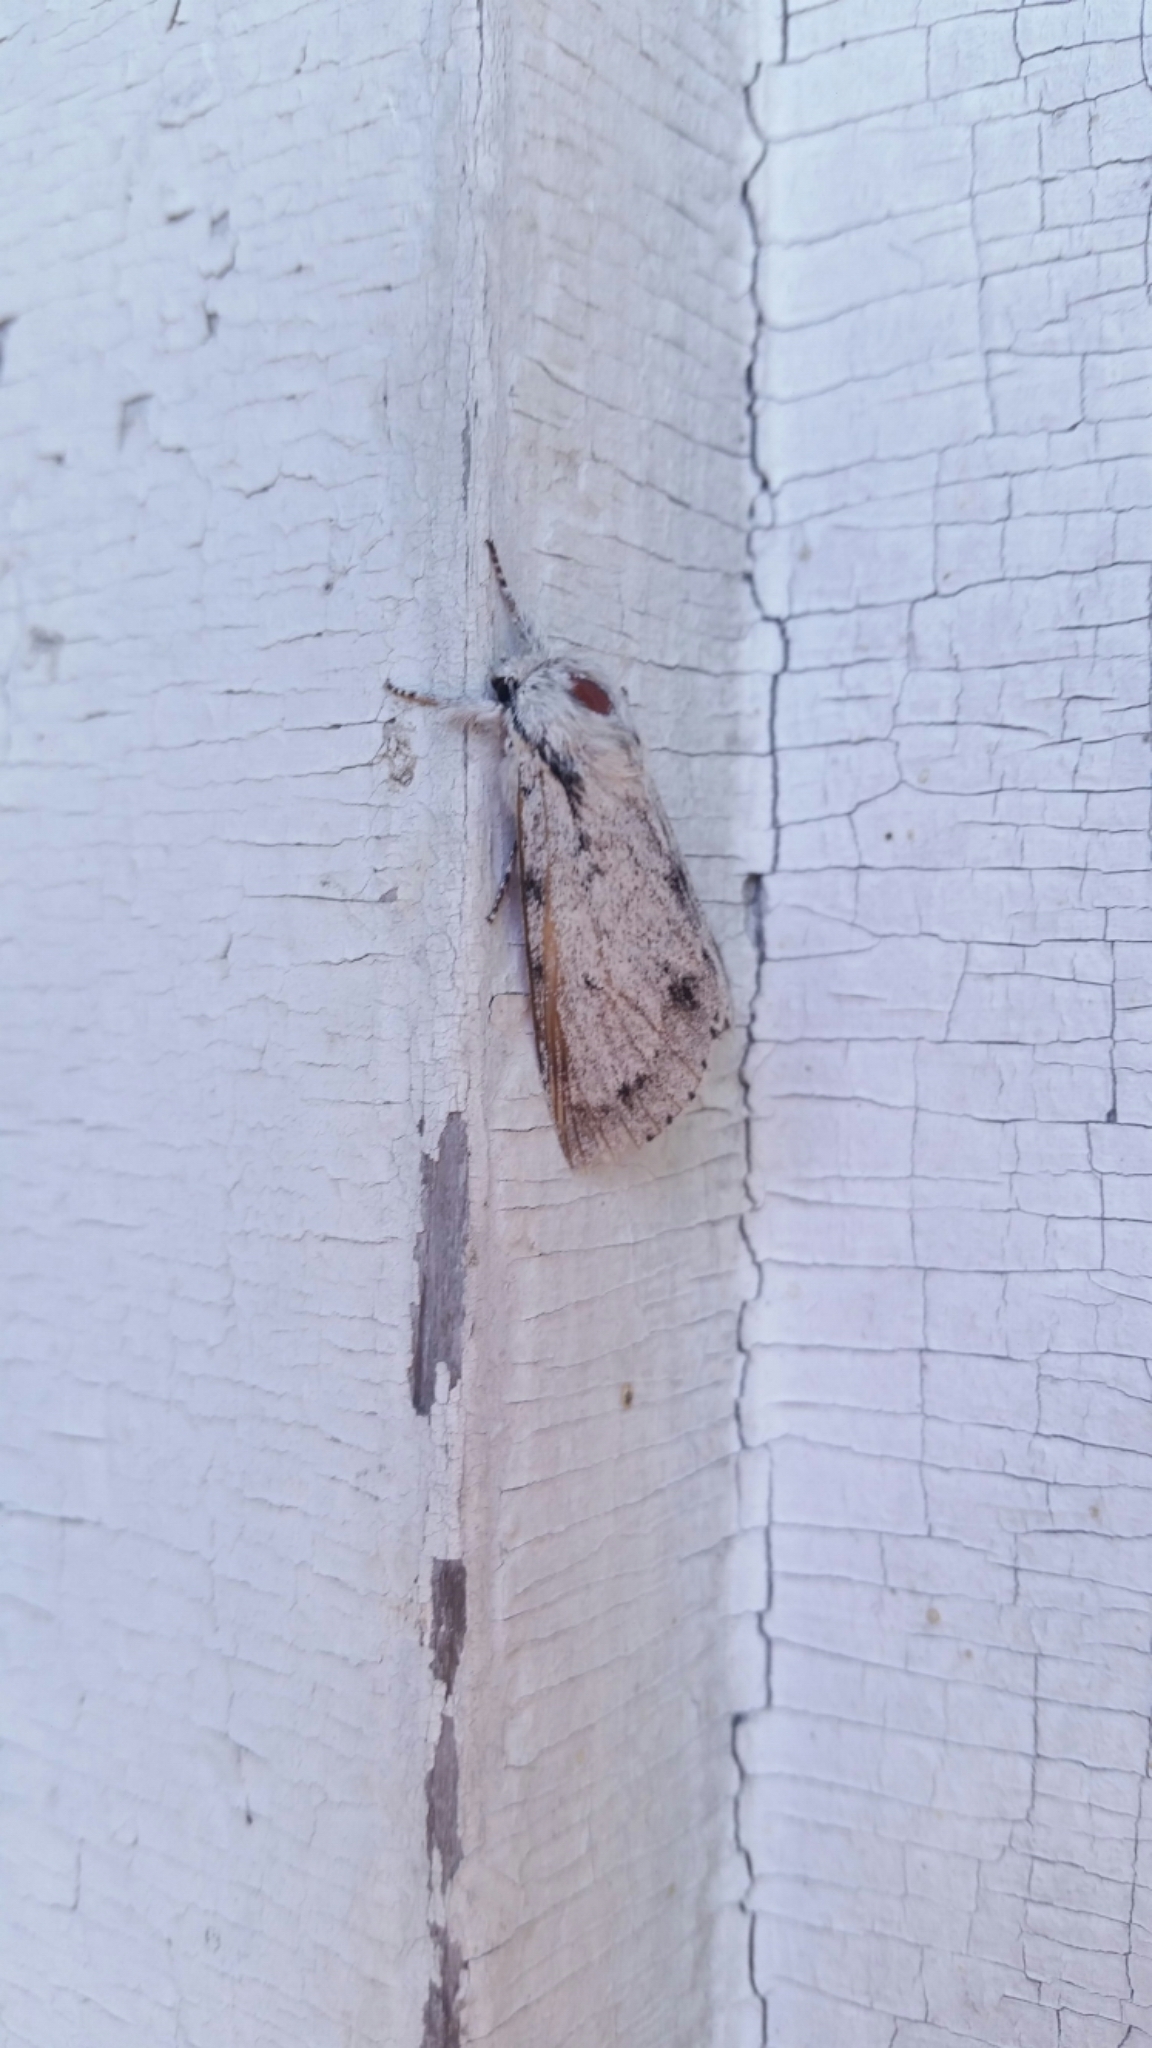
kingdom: Animalia
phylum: Arthropoda
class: Insecta
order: Lepidoptera
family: Noctuidae
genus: Acronicta
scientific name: Acronicta lepusculina
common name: Cottonwood dagger
